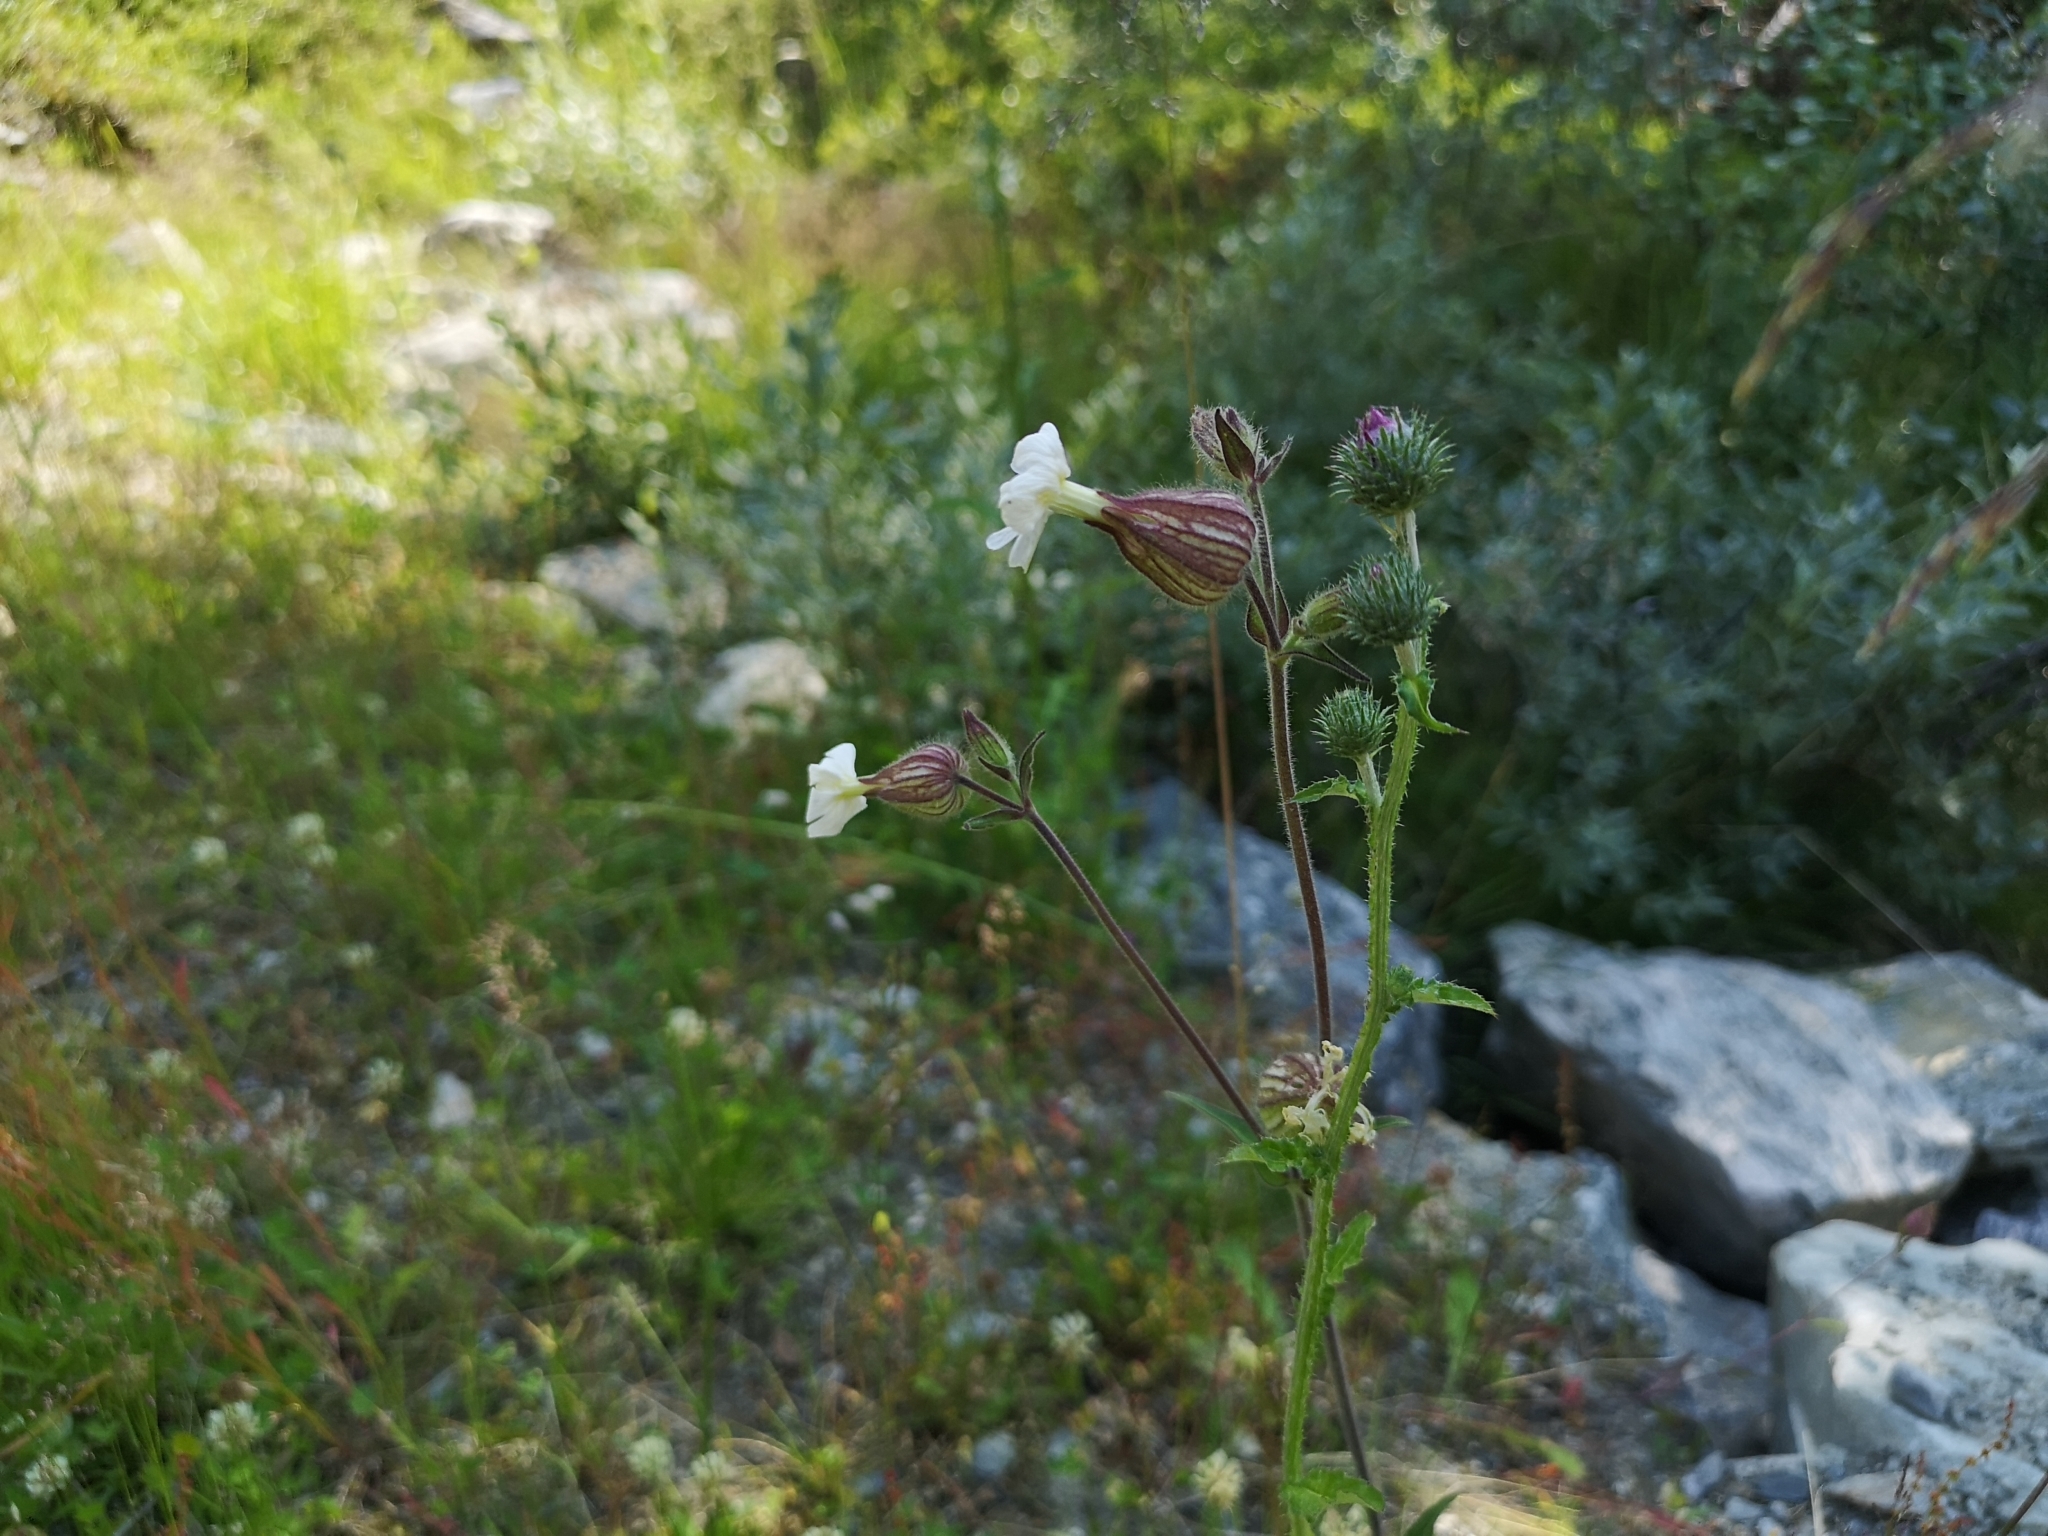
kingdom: Plantae
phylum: Tracheophyta
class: Magnoliopsida
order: Caryophyllales
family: Caryophyllaceae
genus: Silene
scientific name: Silene latifolia
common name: White campion
